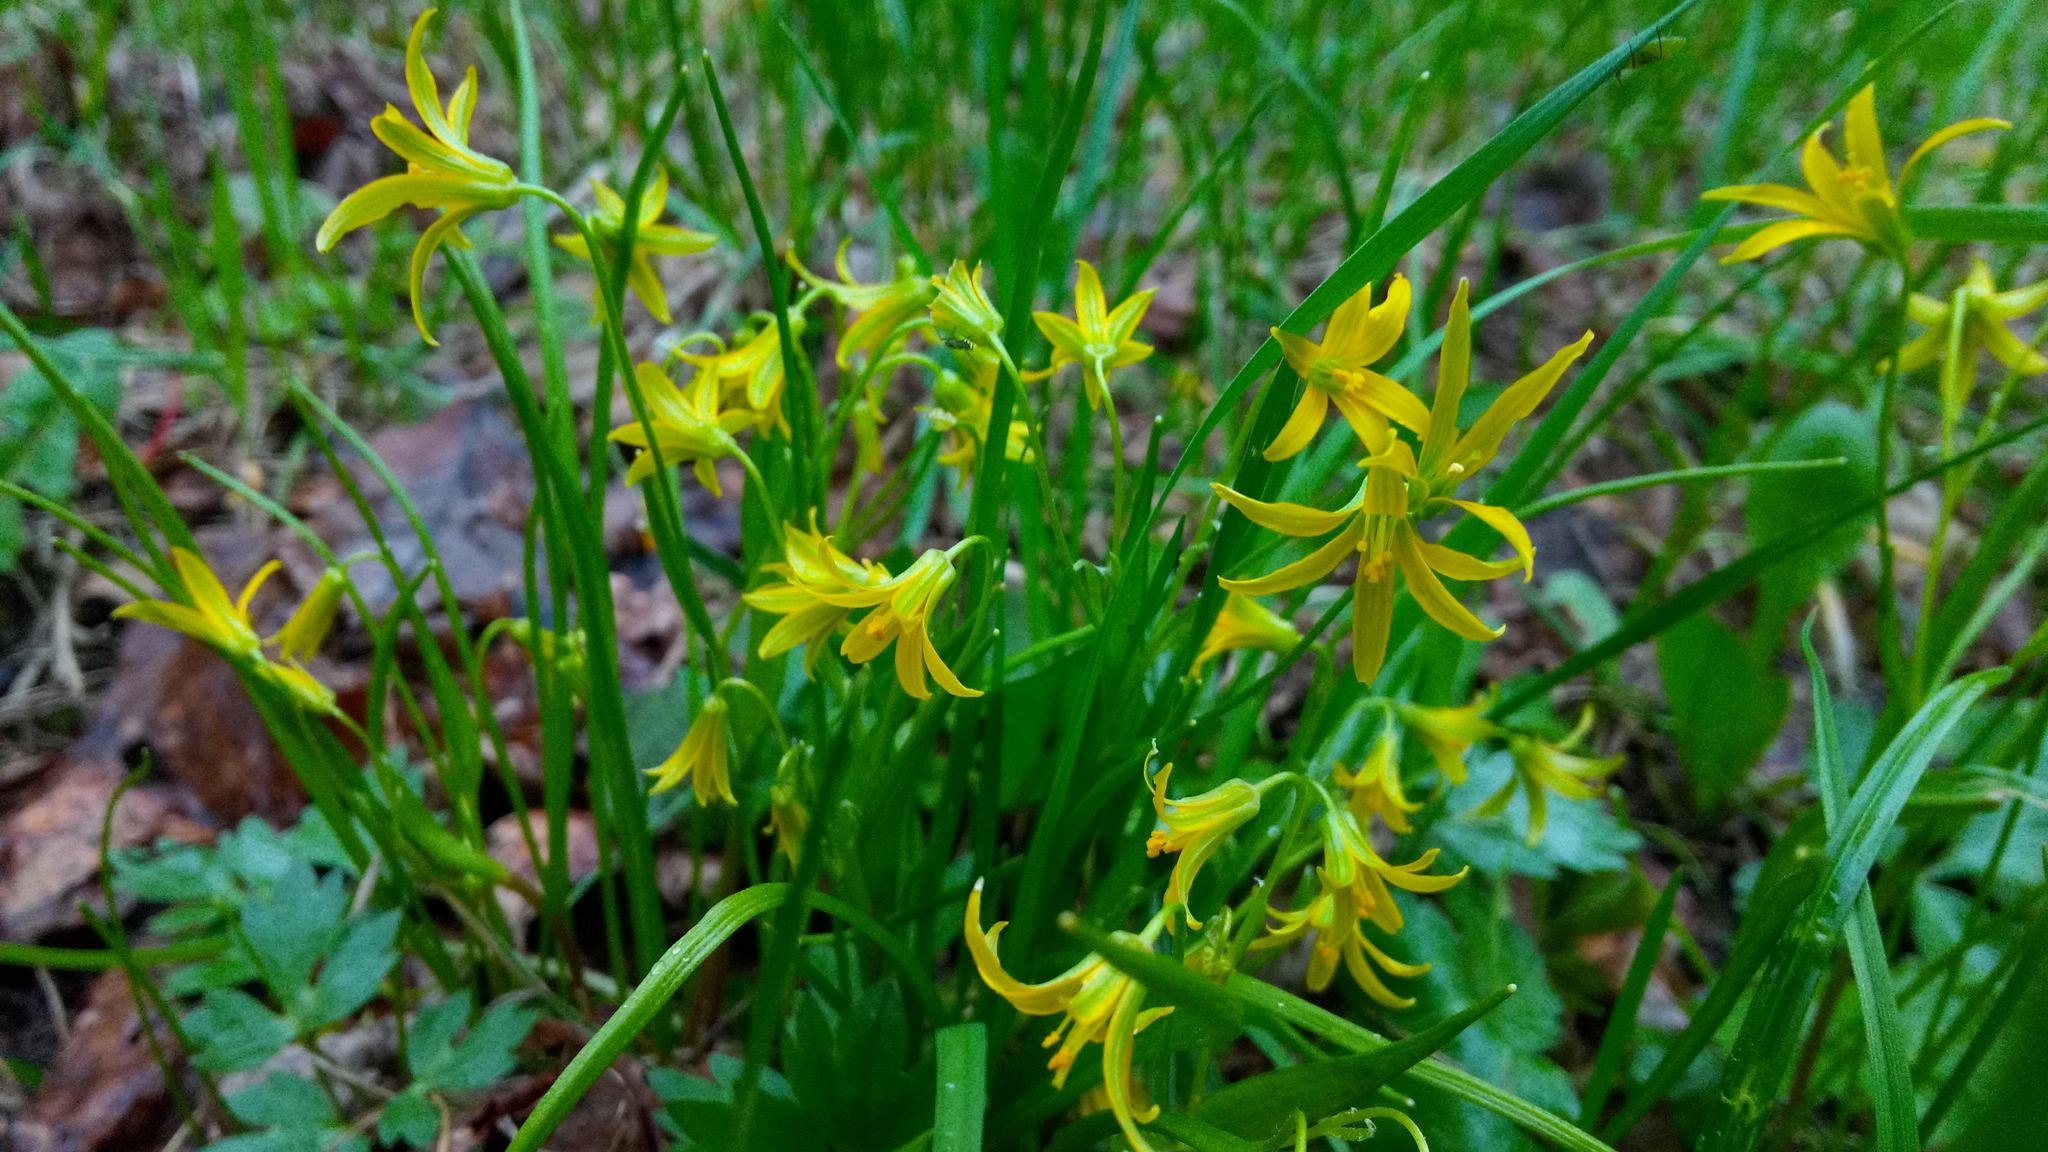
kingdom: Plantae
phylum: Tracheophyta
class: Liliopsida
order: Liliales
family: Liliaceae
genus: Gagea
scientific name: Gagea minima
